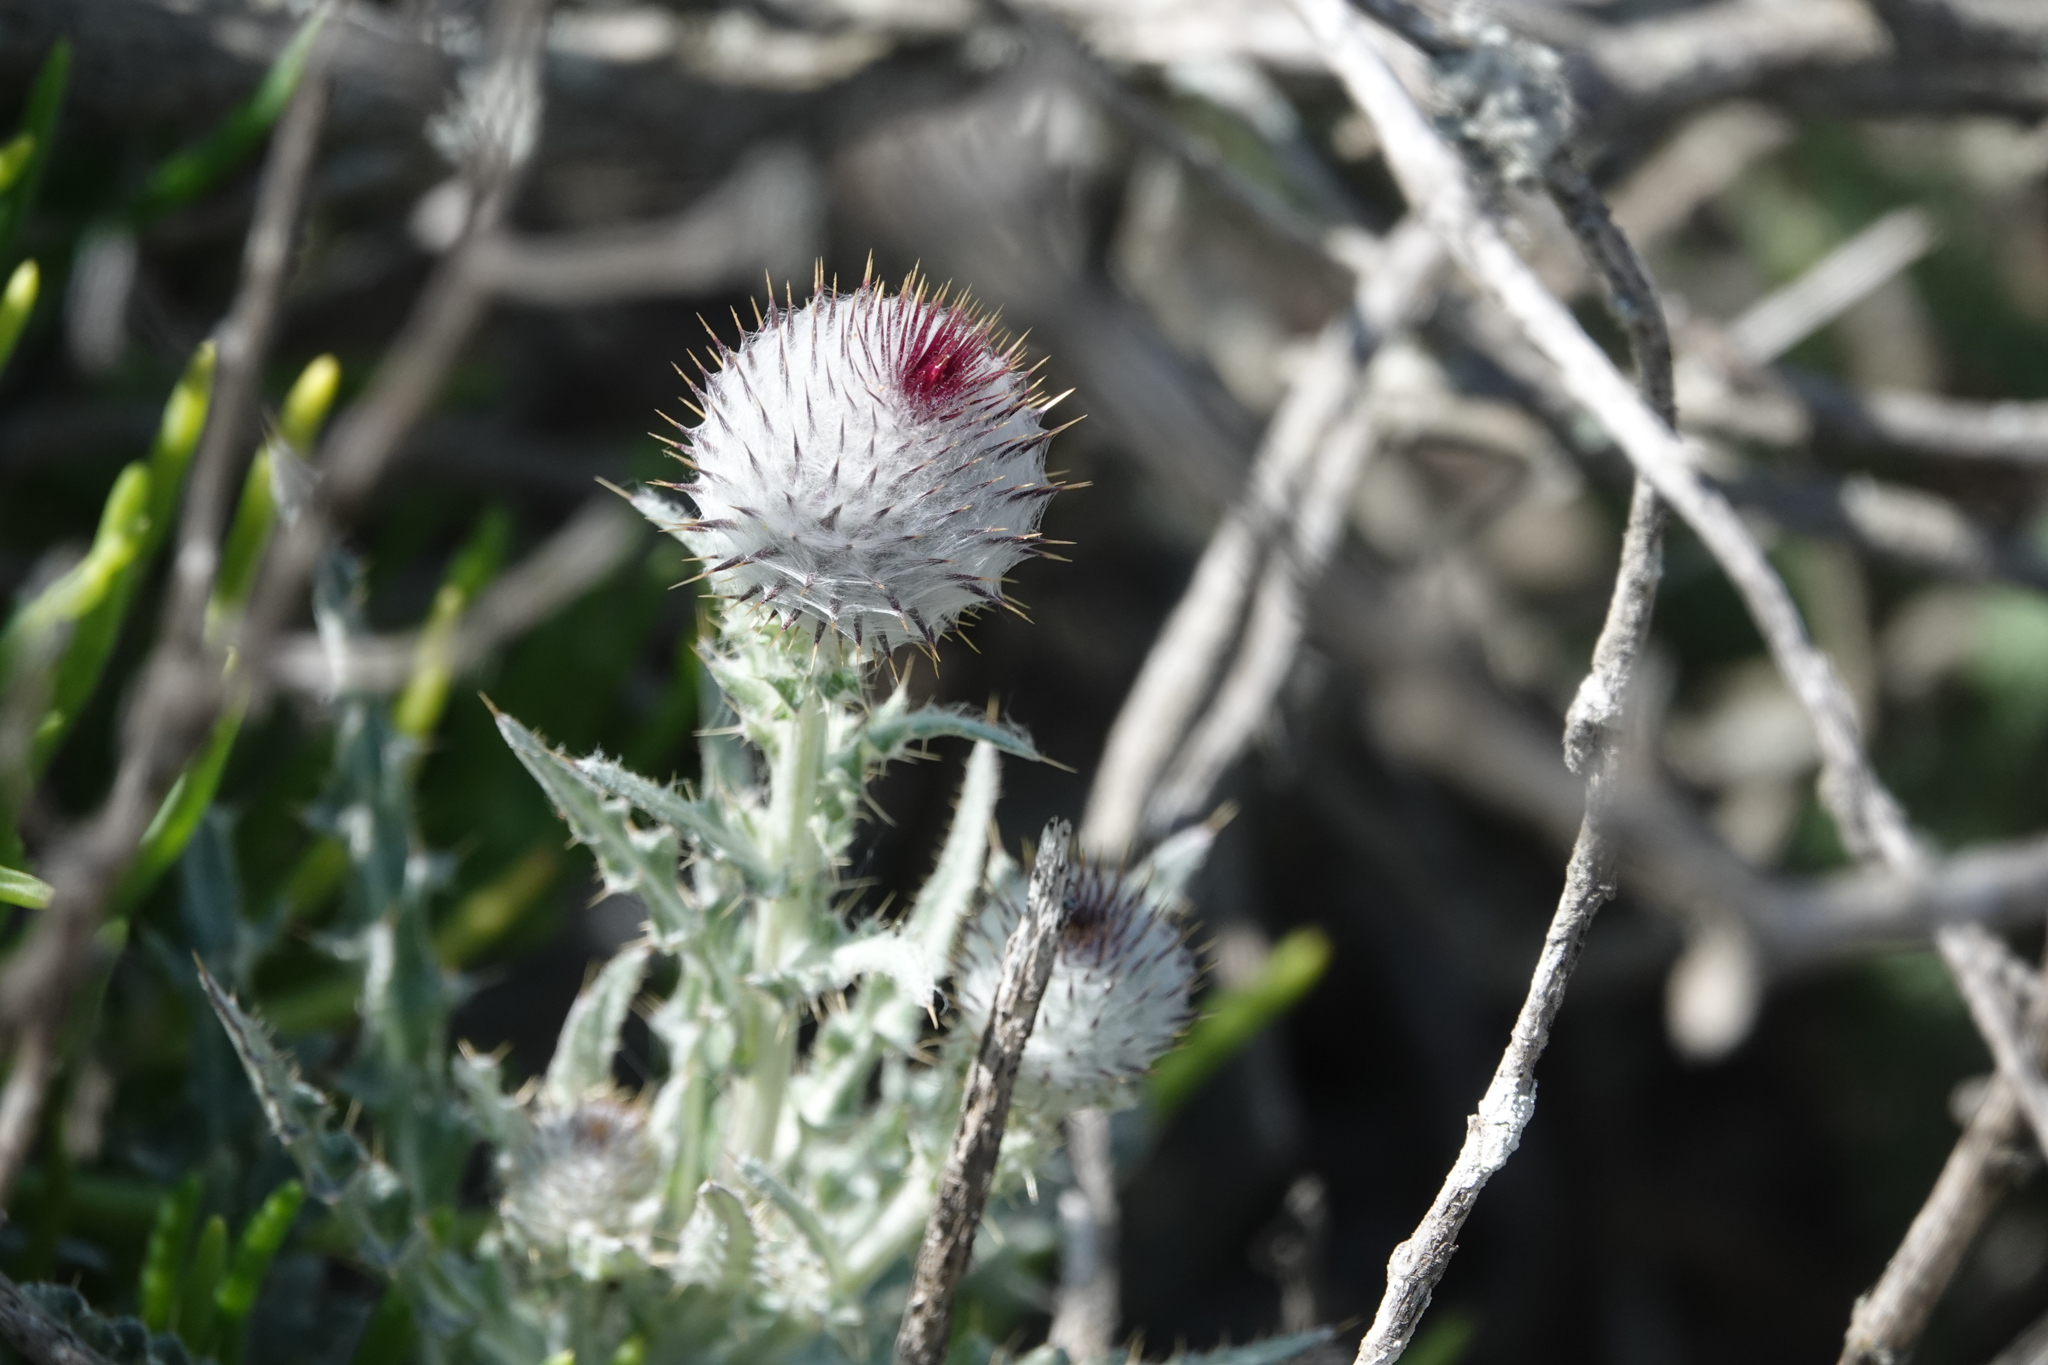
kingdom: Plantae
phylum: Tracheophyta
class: Magnoliopsida
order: Asterales
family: Asteraceae
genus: Cirsium
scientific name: Cirsium occidentale
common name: Western thistle
